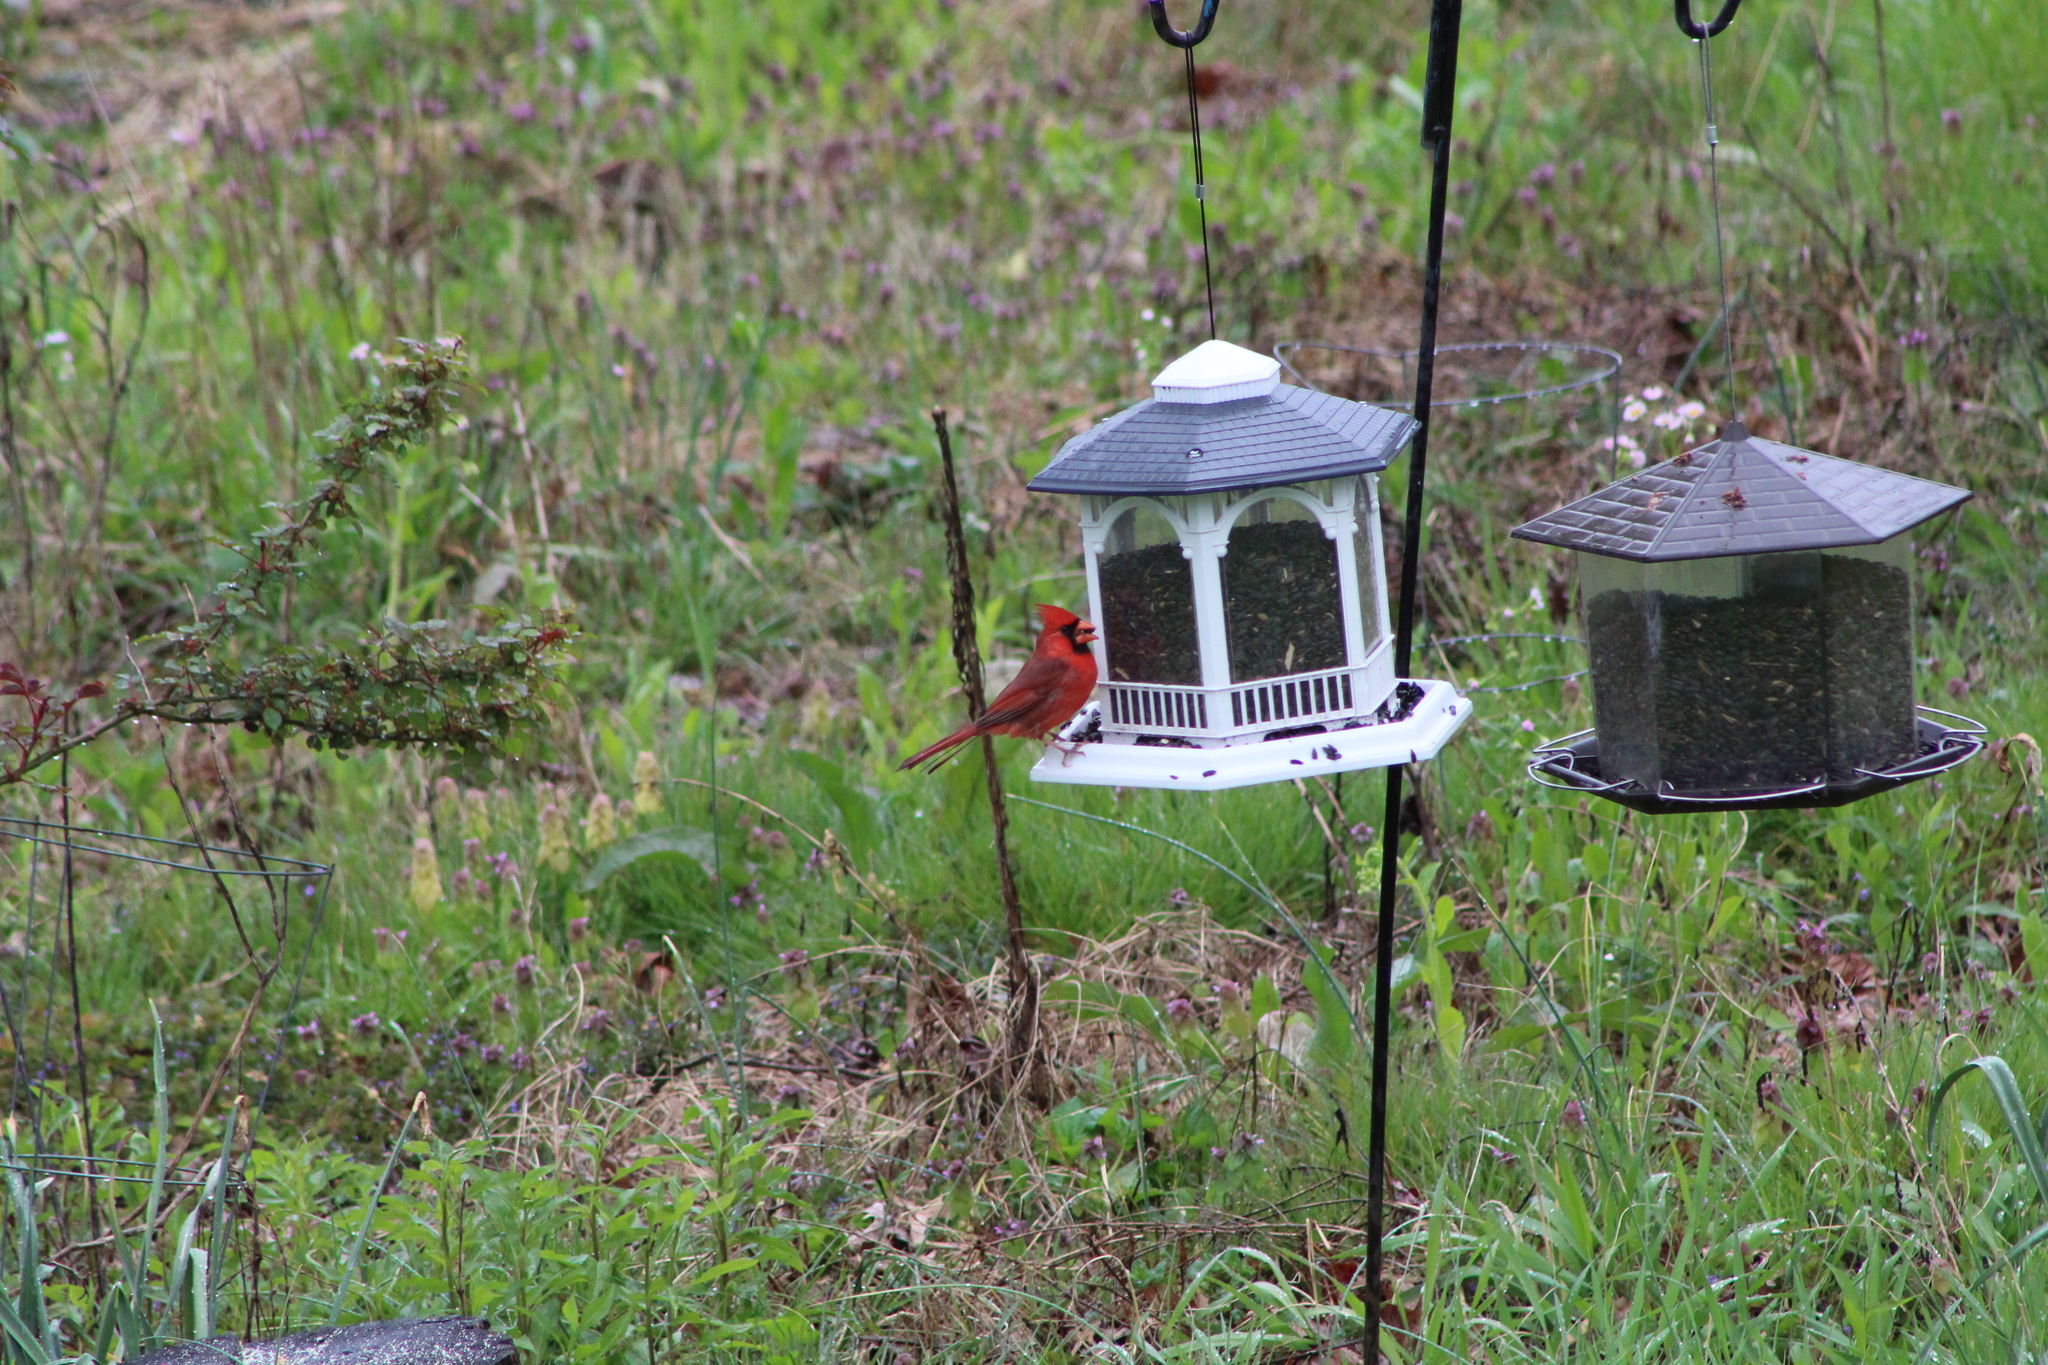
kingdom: Animalia
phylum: Chordata
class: Aves
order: Passeriformes
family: Cardinalidae
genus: Cardinalis
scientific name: Cardinalis cardinalis
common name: Northern cardinal
